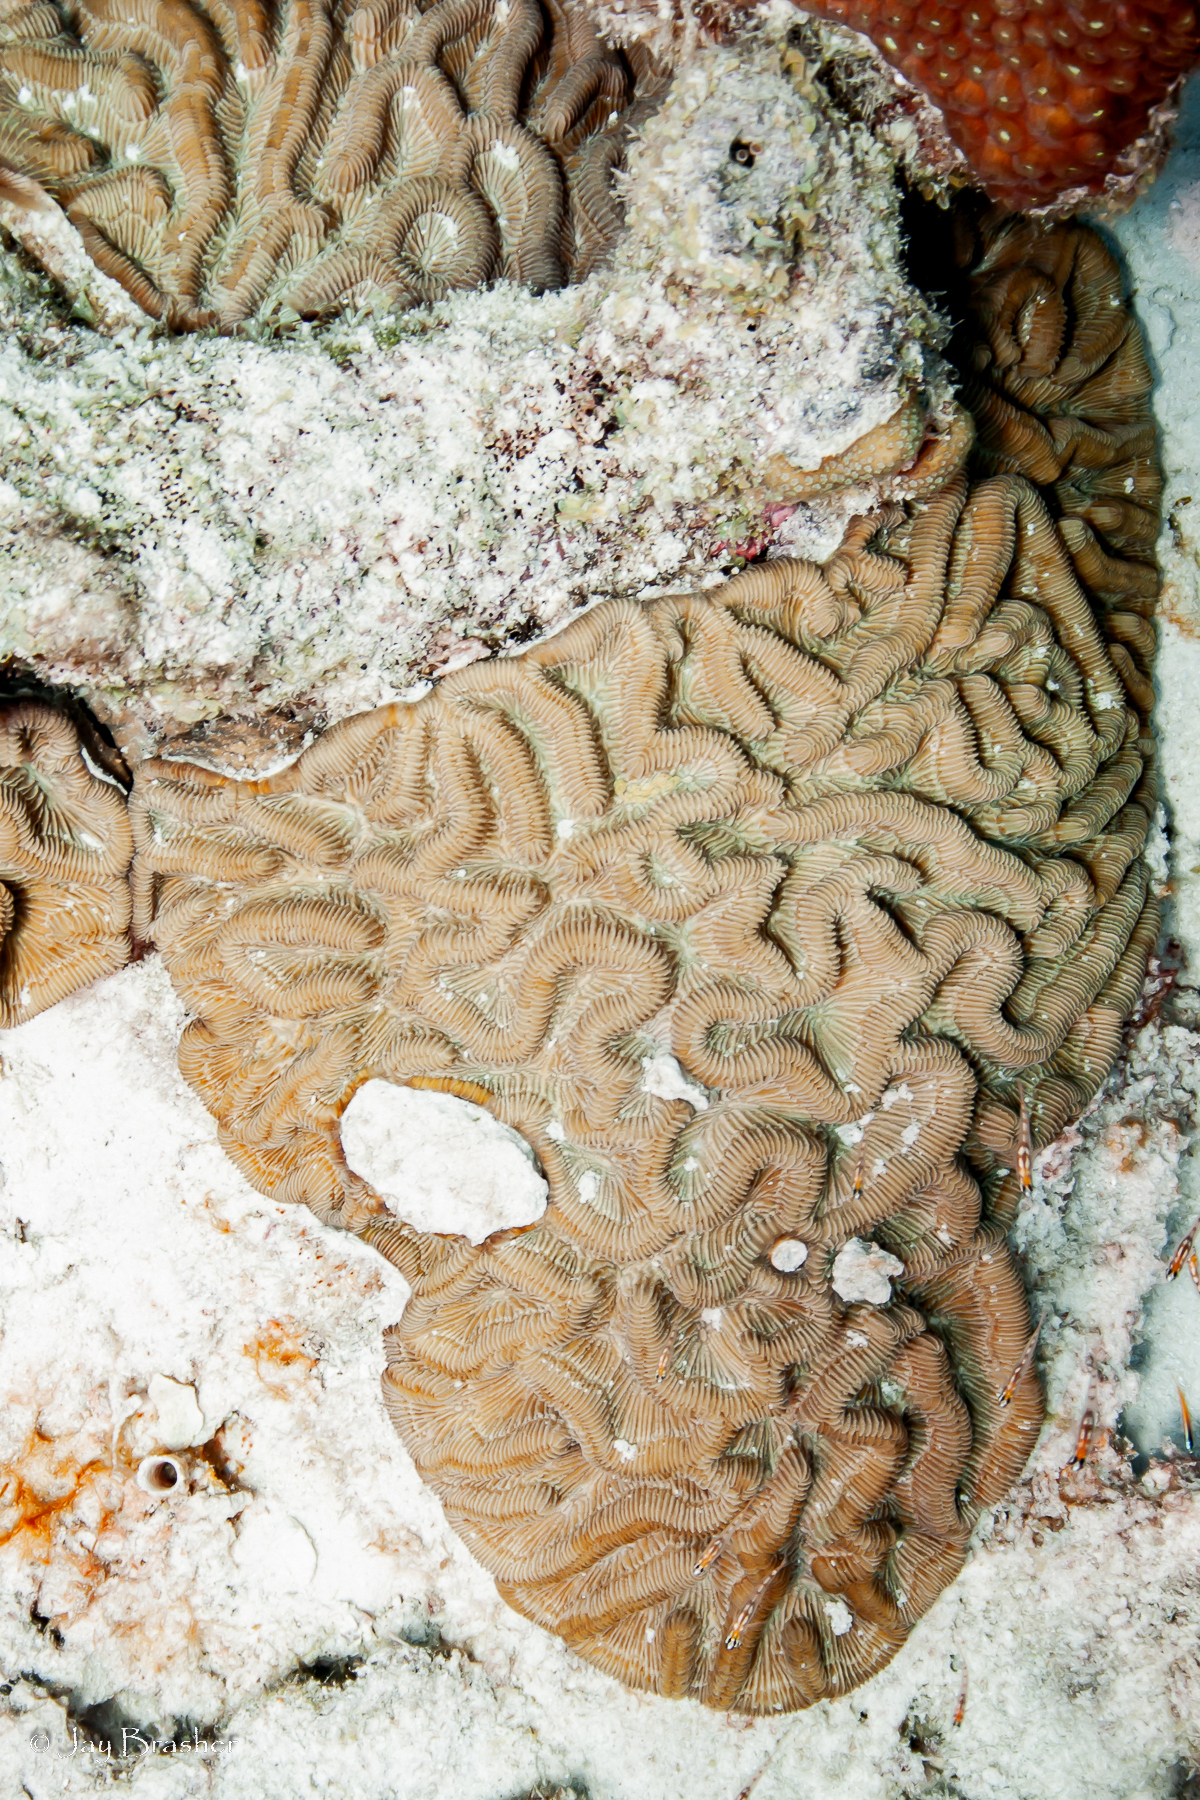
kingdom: Animalia
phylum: Cnidaria
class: Anthozoa
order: Scleractinia
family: Faviidae
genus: Colpophyllia
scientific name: Colpophyllia natans
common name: Boulder brain coral
